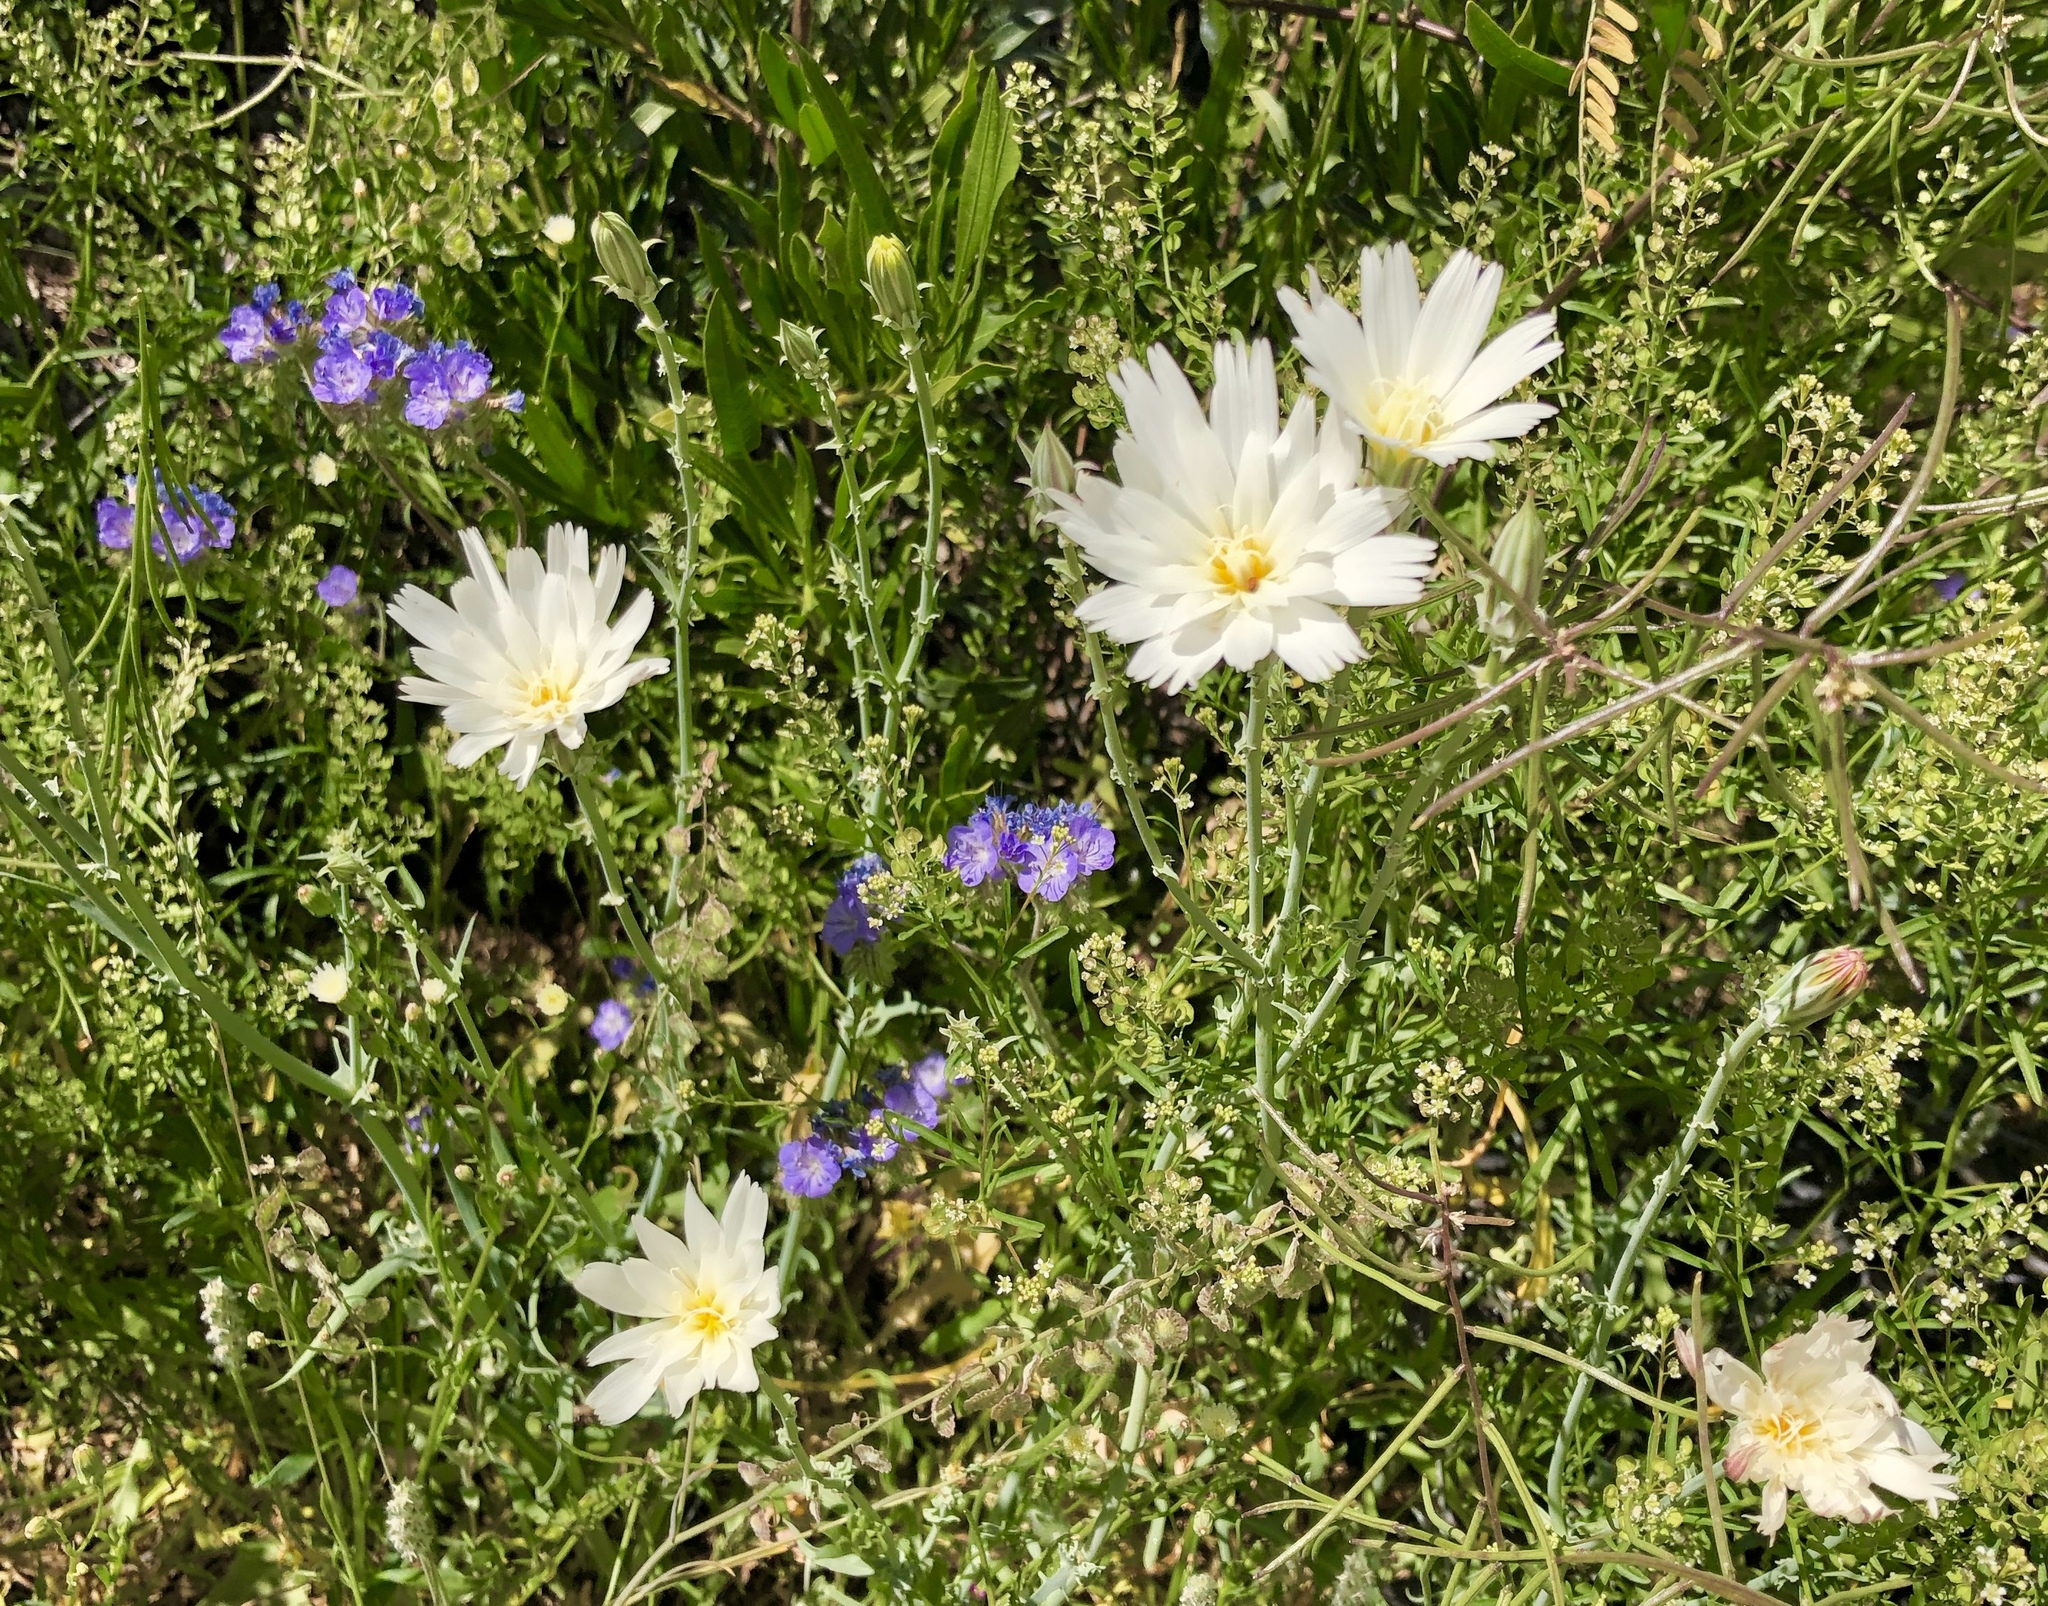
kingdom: Plantae
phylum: Tracheophyta
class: Magnoliopsida
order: Asterales
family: Asteraceae
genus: Rafinesquia
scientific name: Rafinesquia neomexicana
